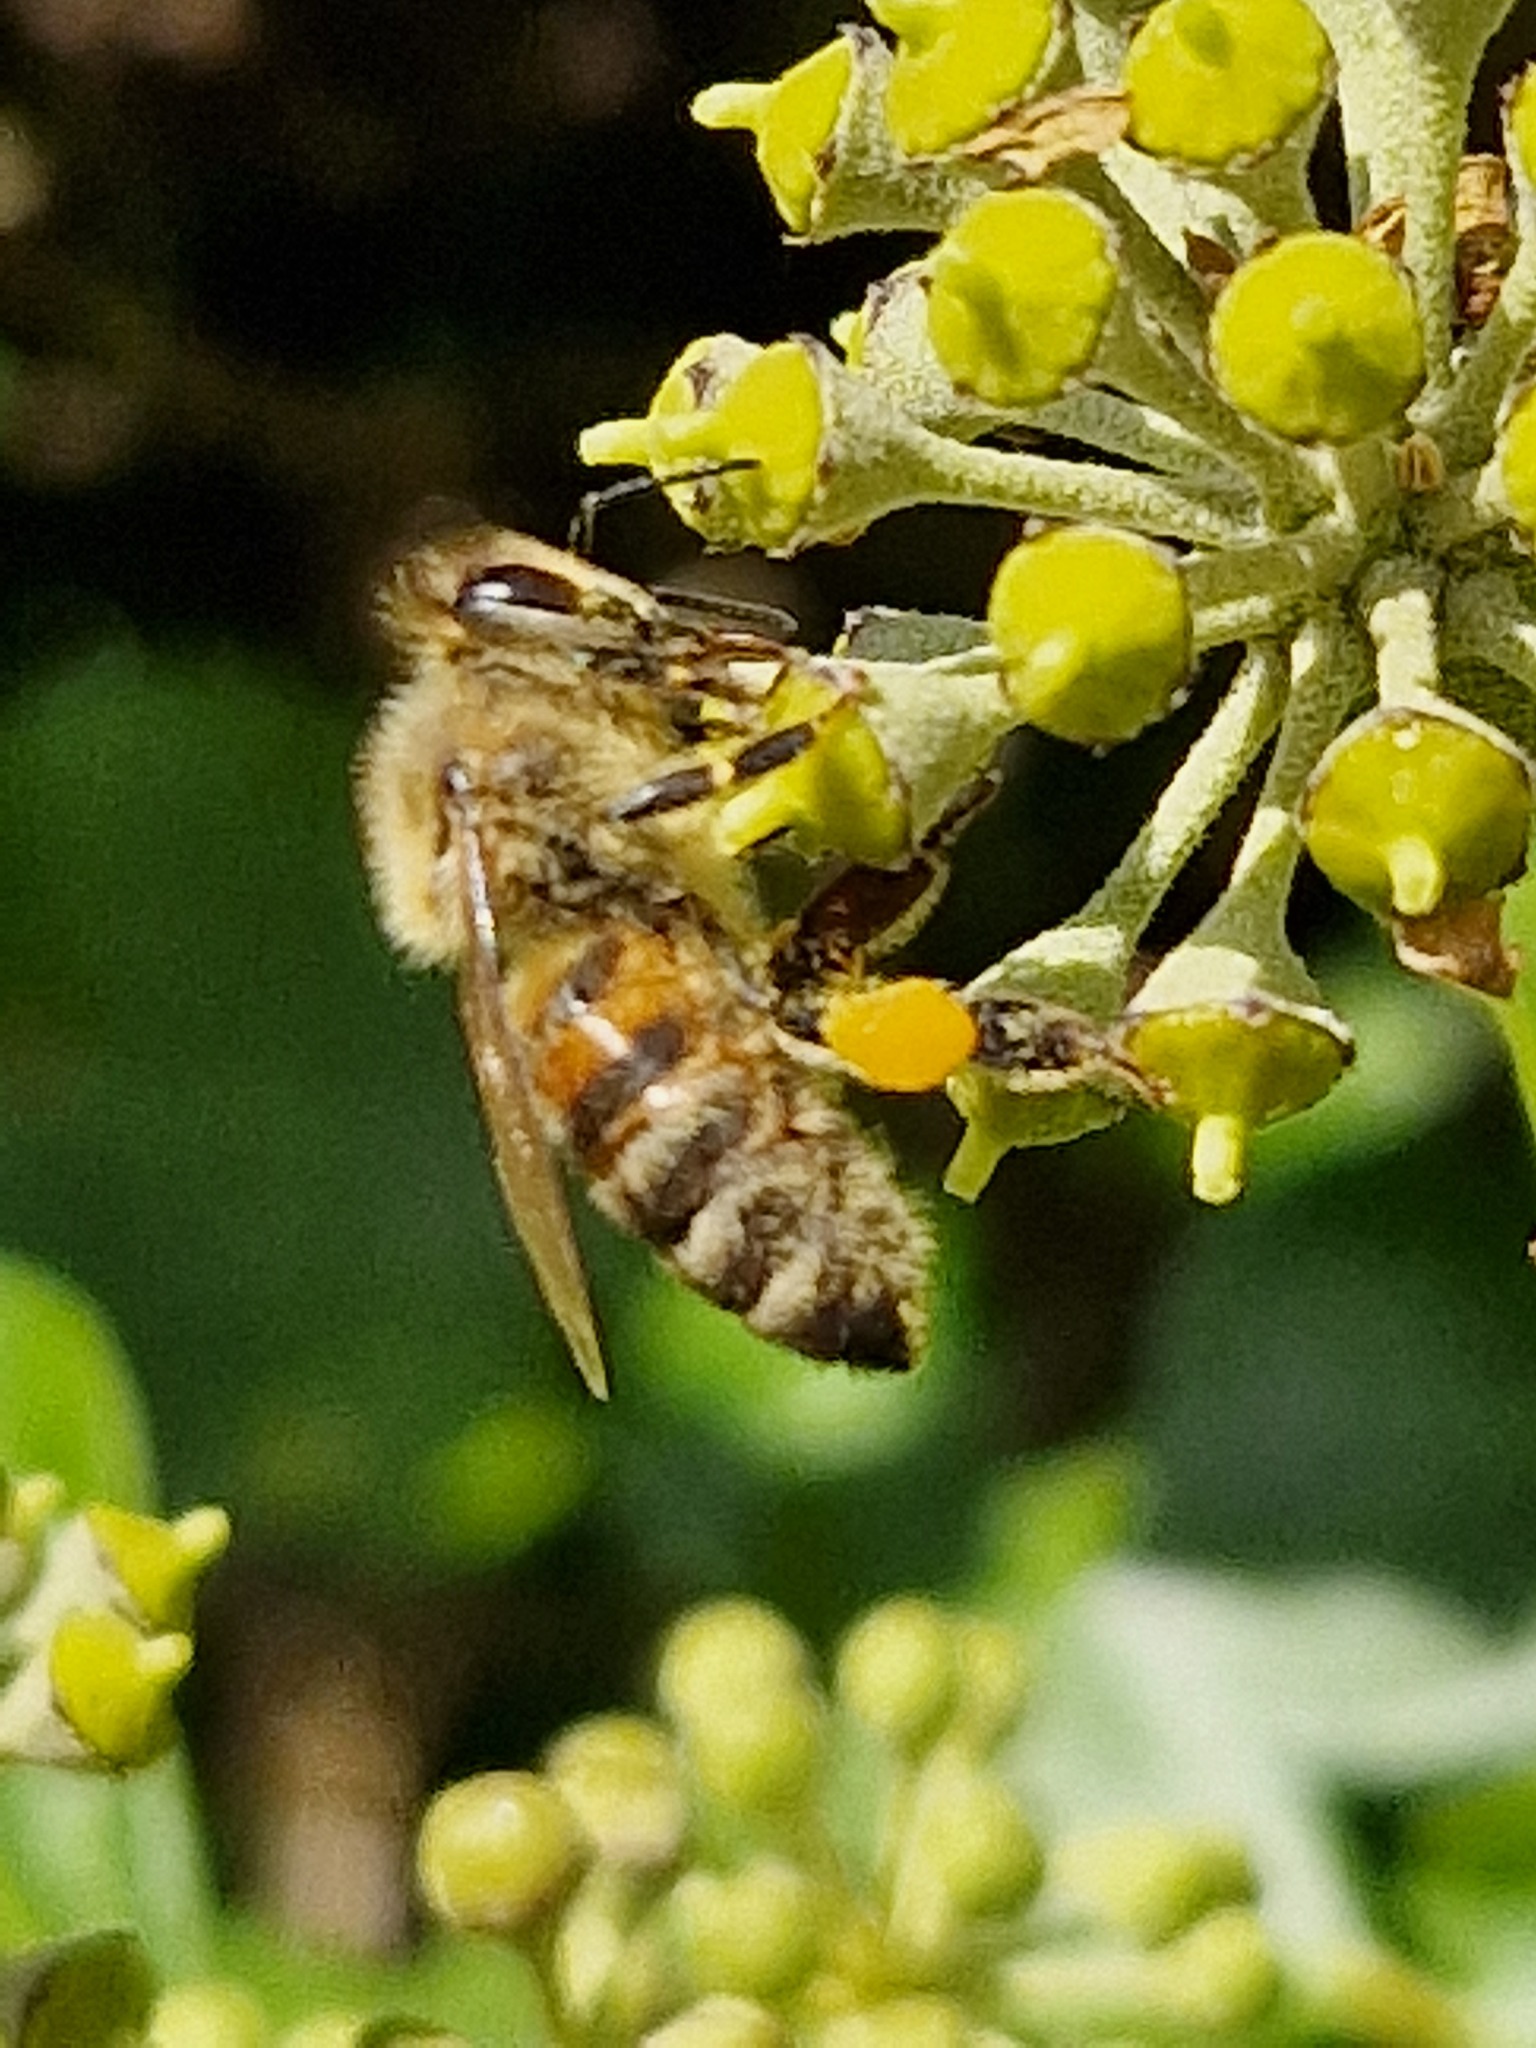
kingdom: Animalia
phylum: Arthropoda
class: Insecta
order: Hymenoptera
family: Apidae
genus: Apis
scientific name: Apis mellifera
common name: Honey bee
